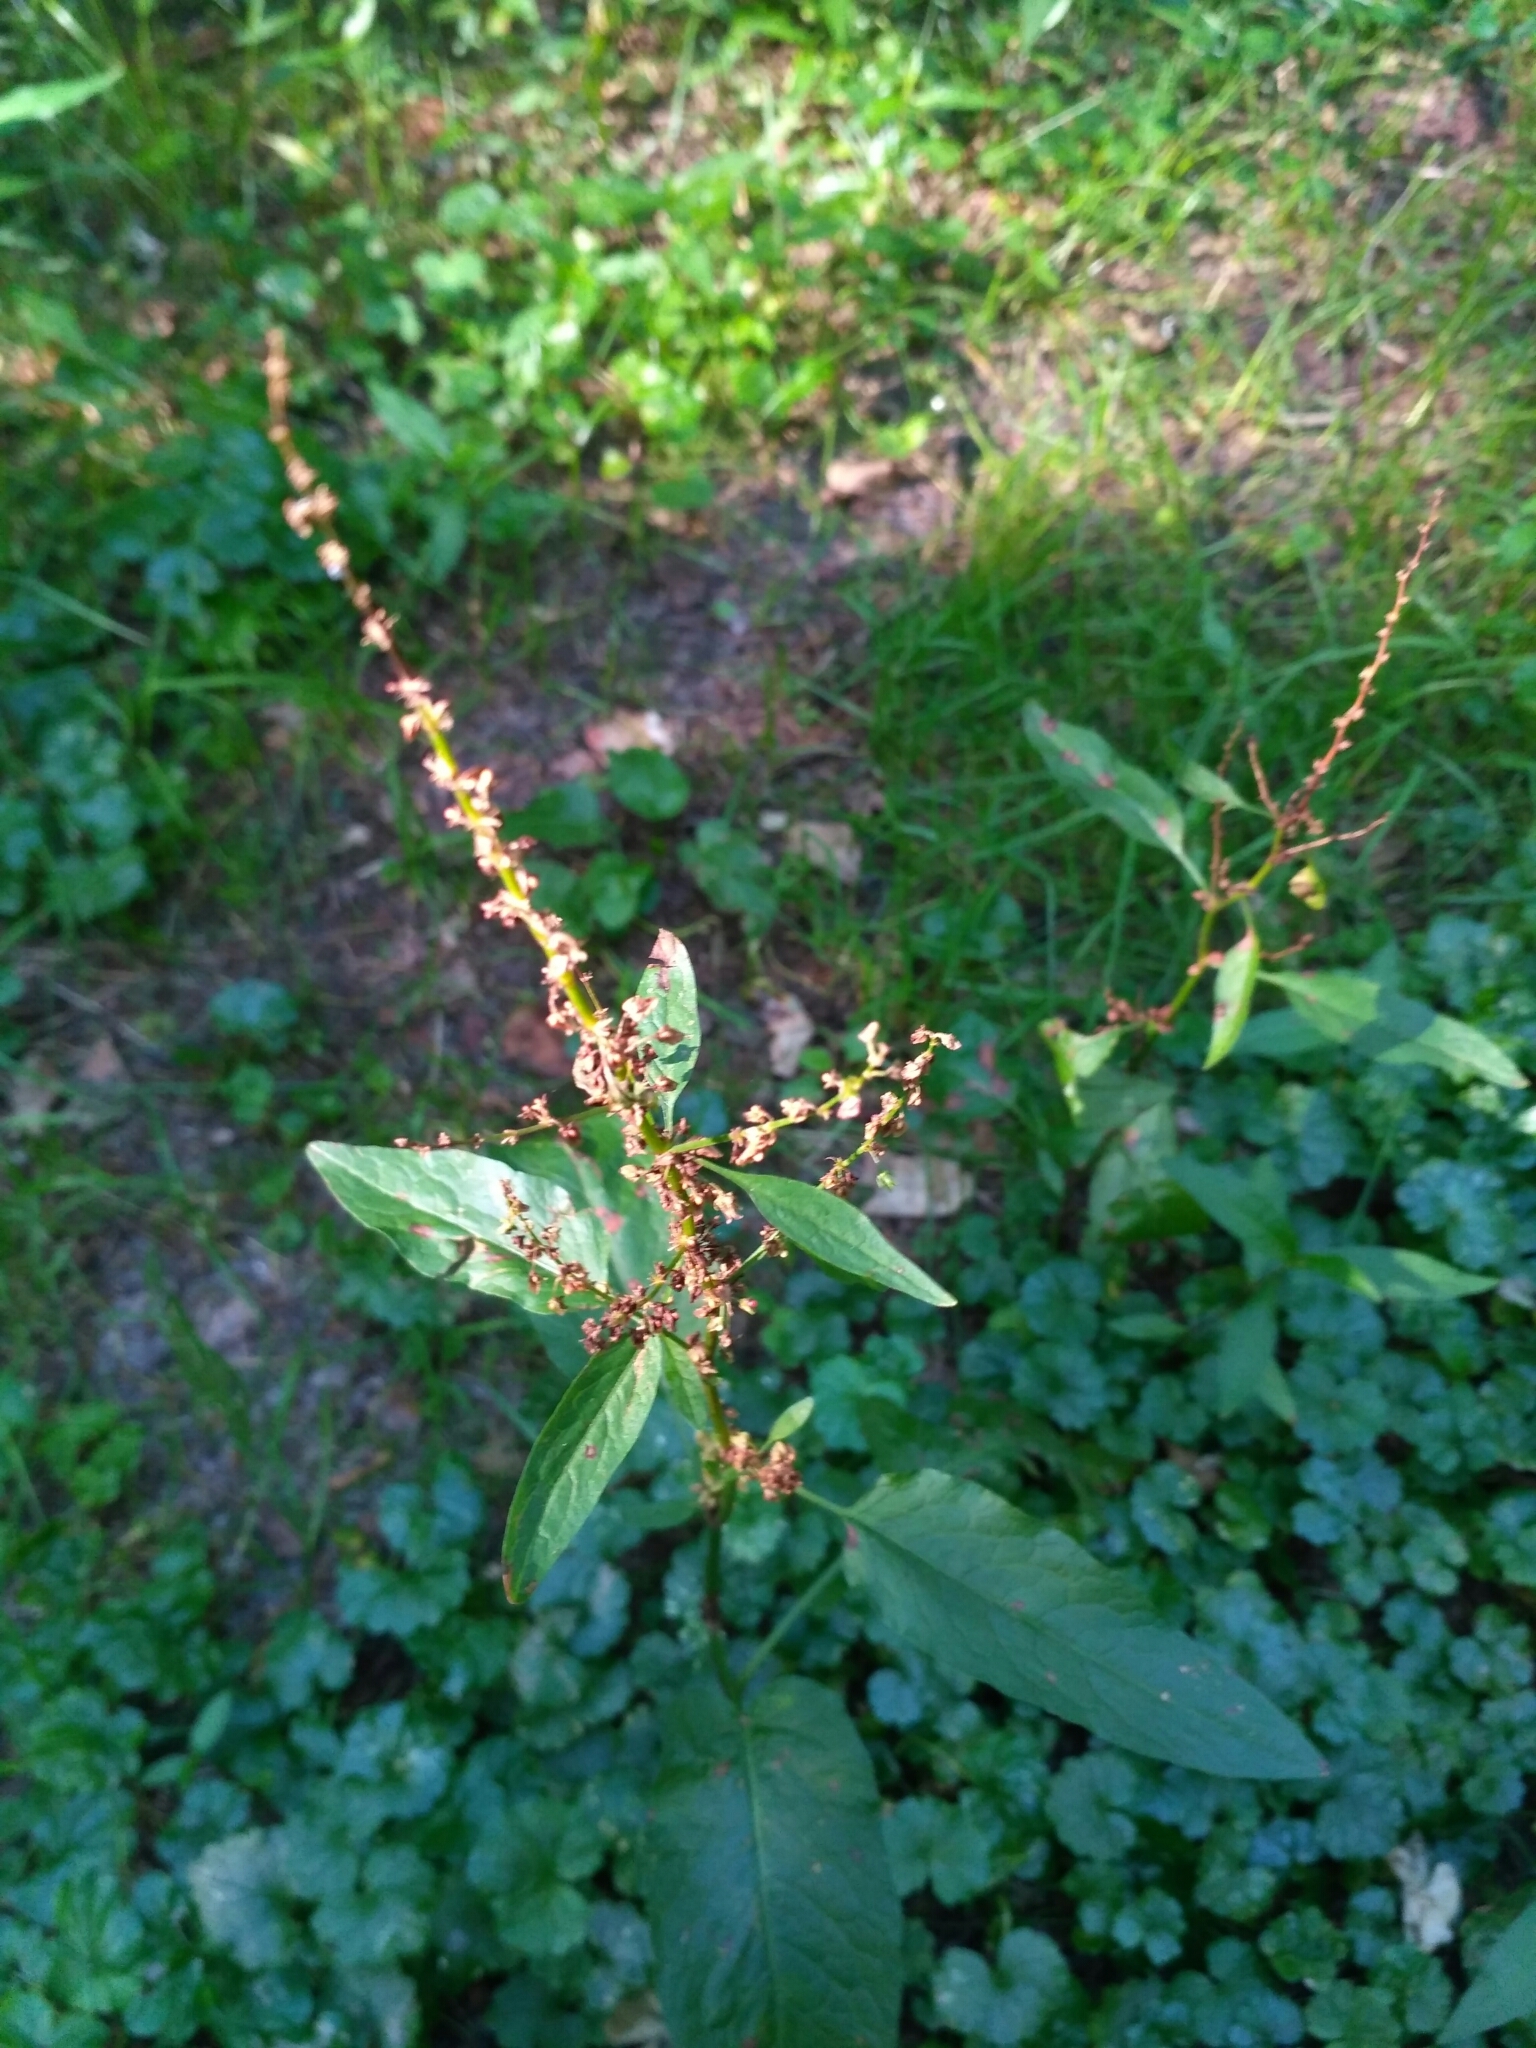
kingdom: Plantae
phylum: Tracheophyta
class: Magnoliopsida
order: Caryophyllales
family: Polygonaceae
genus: Rumex
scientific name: Rumex obtusifolius
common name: Bitter dock
